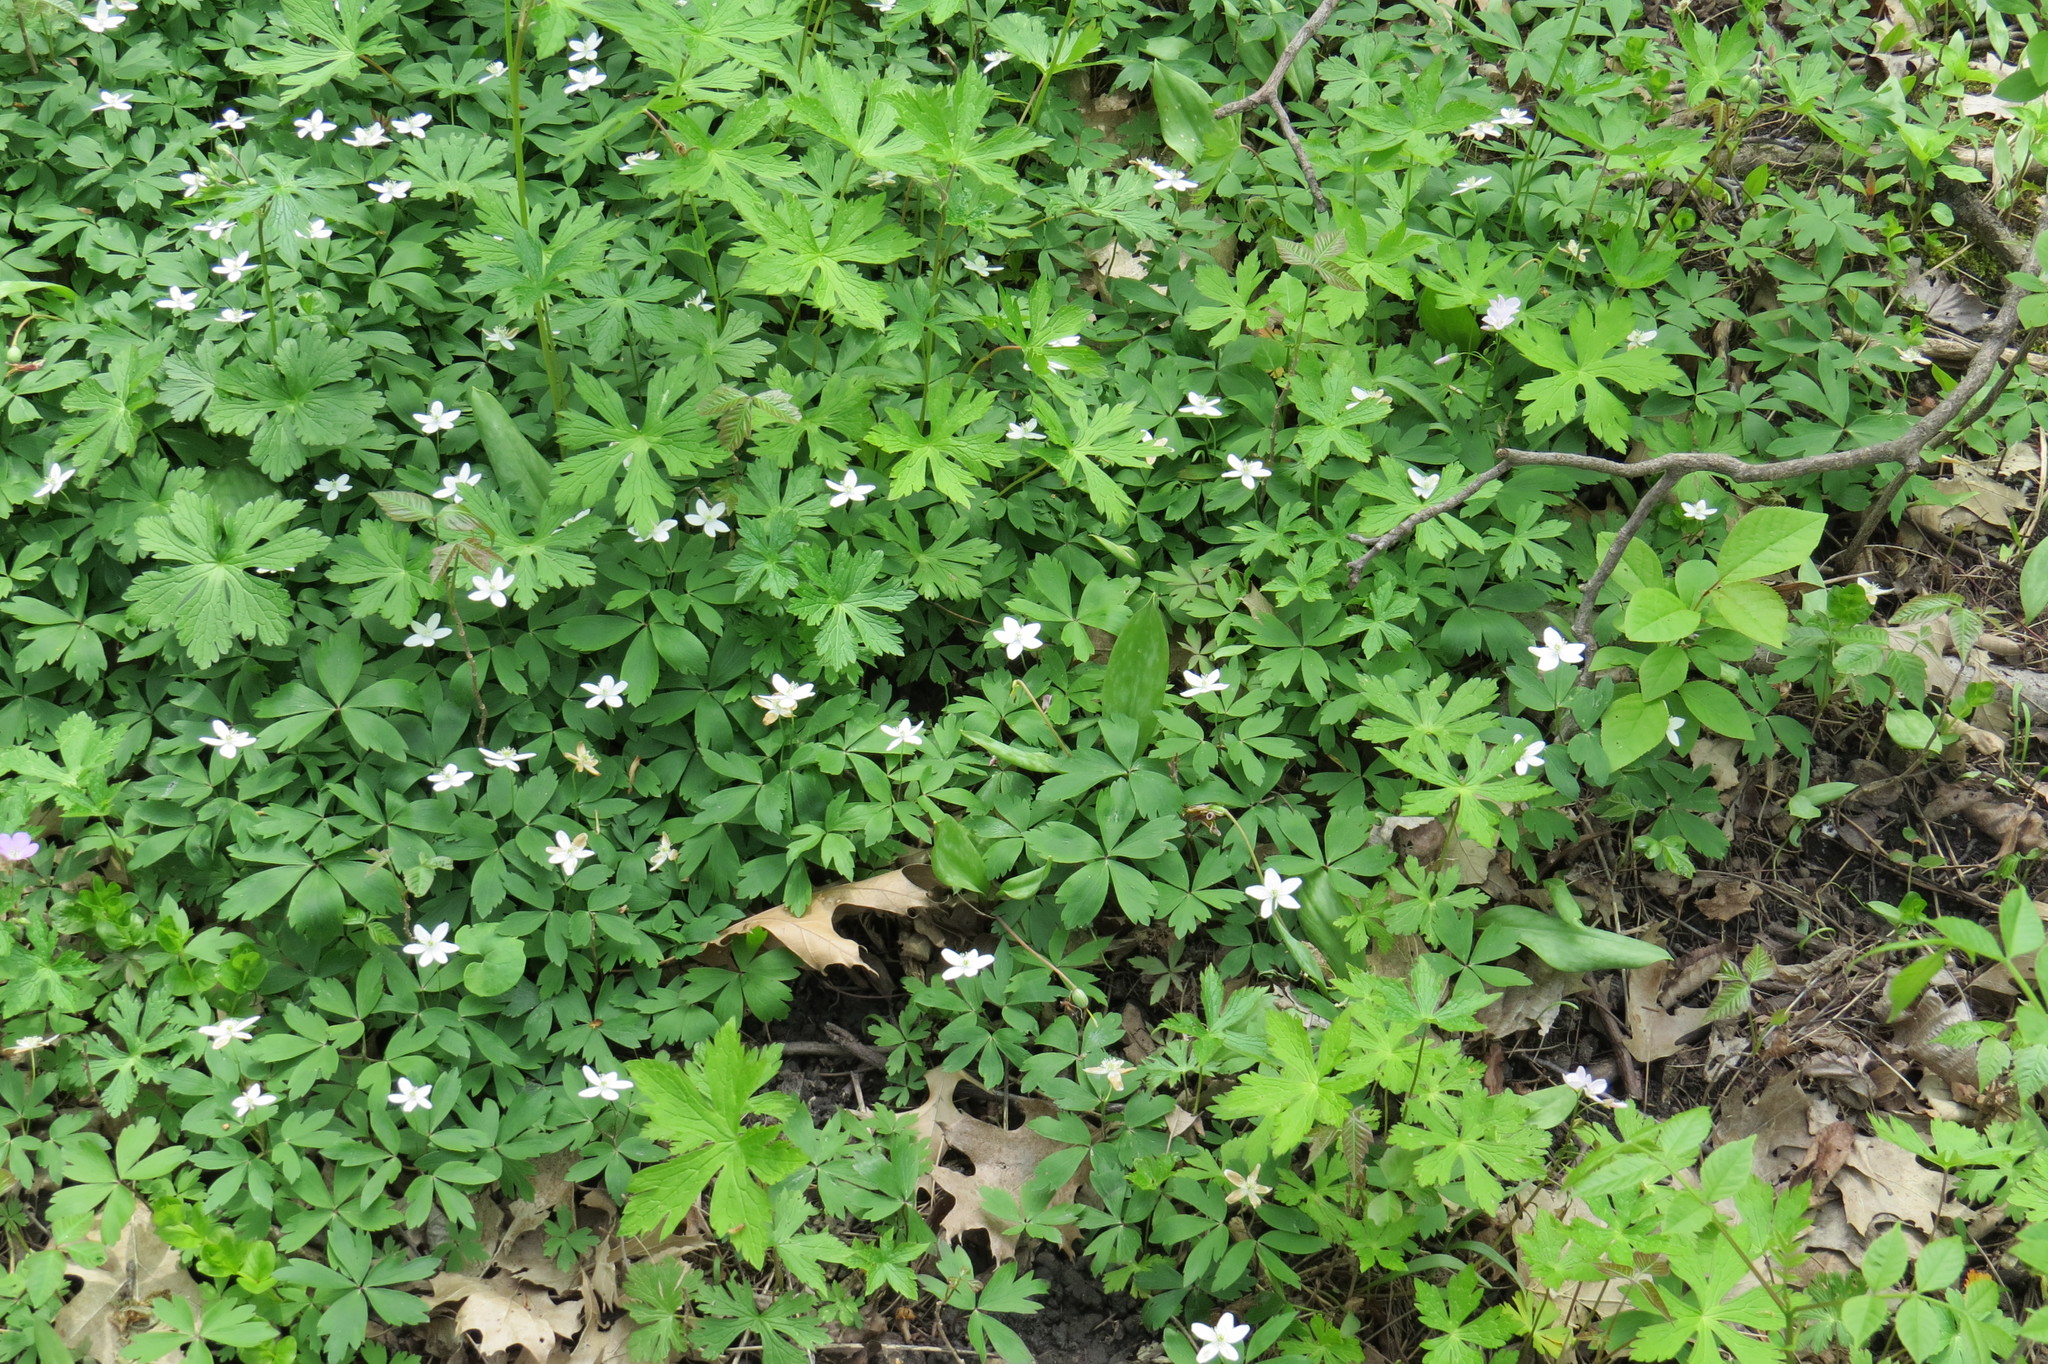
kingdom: Plantae
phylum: Tracheophyta
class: Magnoliopsida
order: Ranunculales
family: Ranunculaceae
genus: Anemone
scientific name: Anemone quinquefolia
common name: Wood anemone
